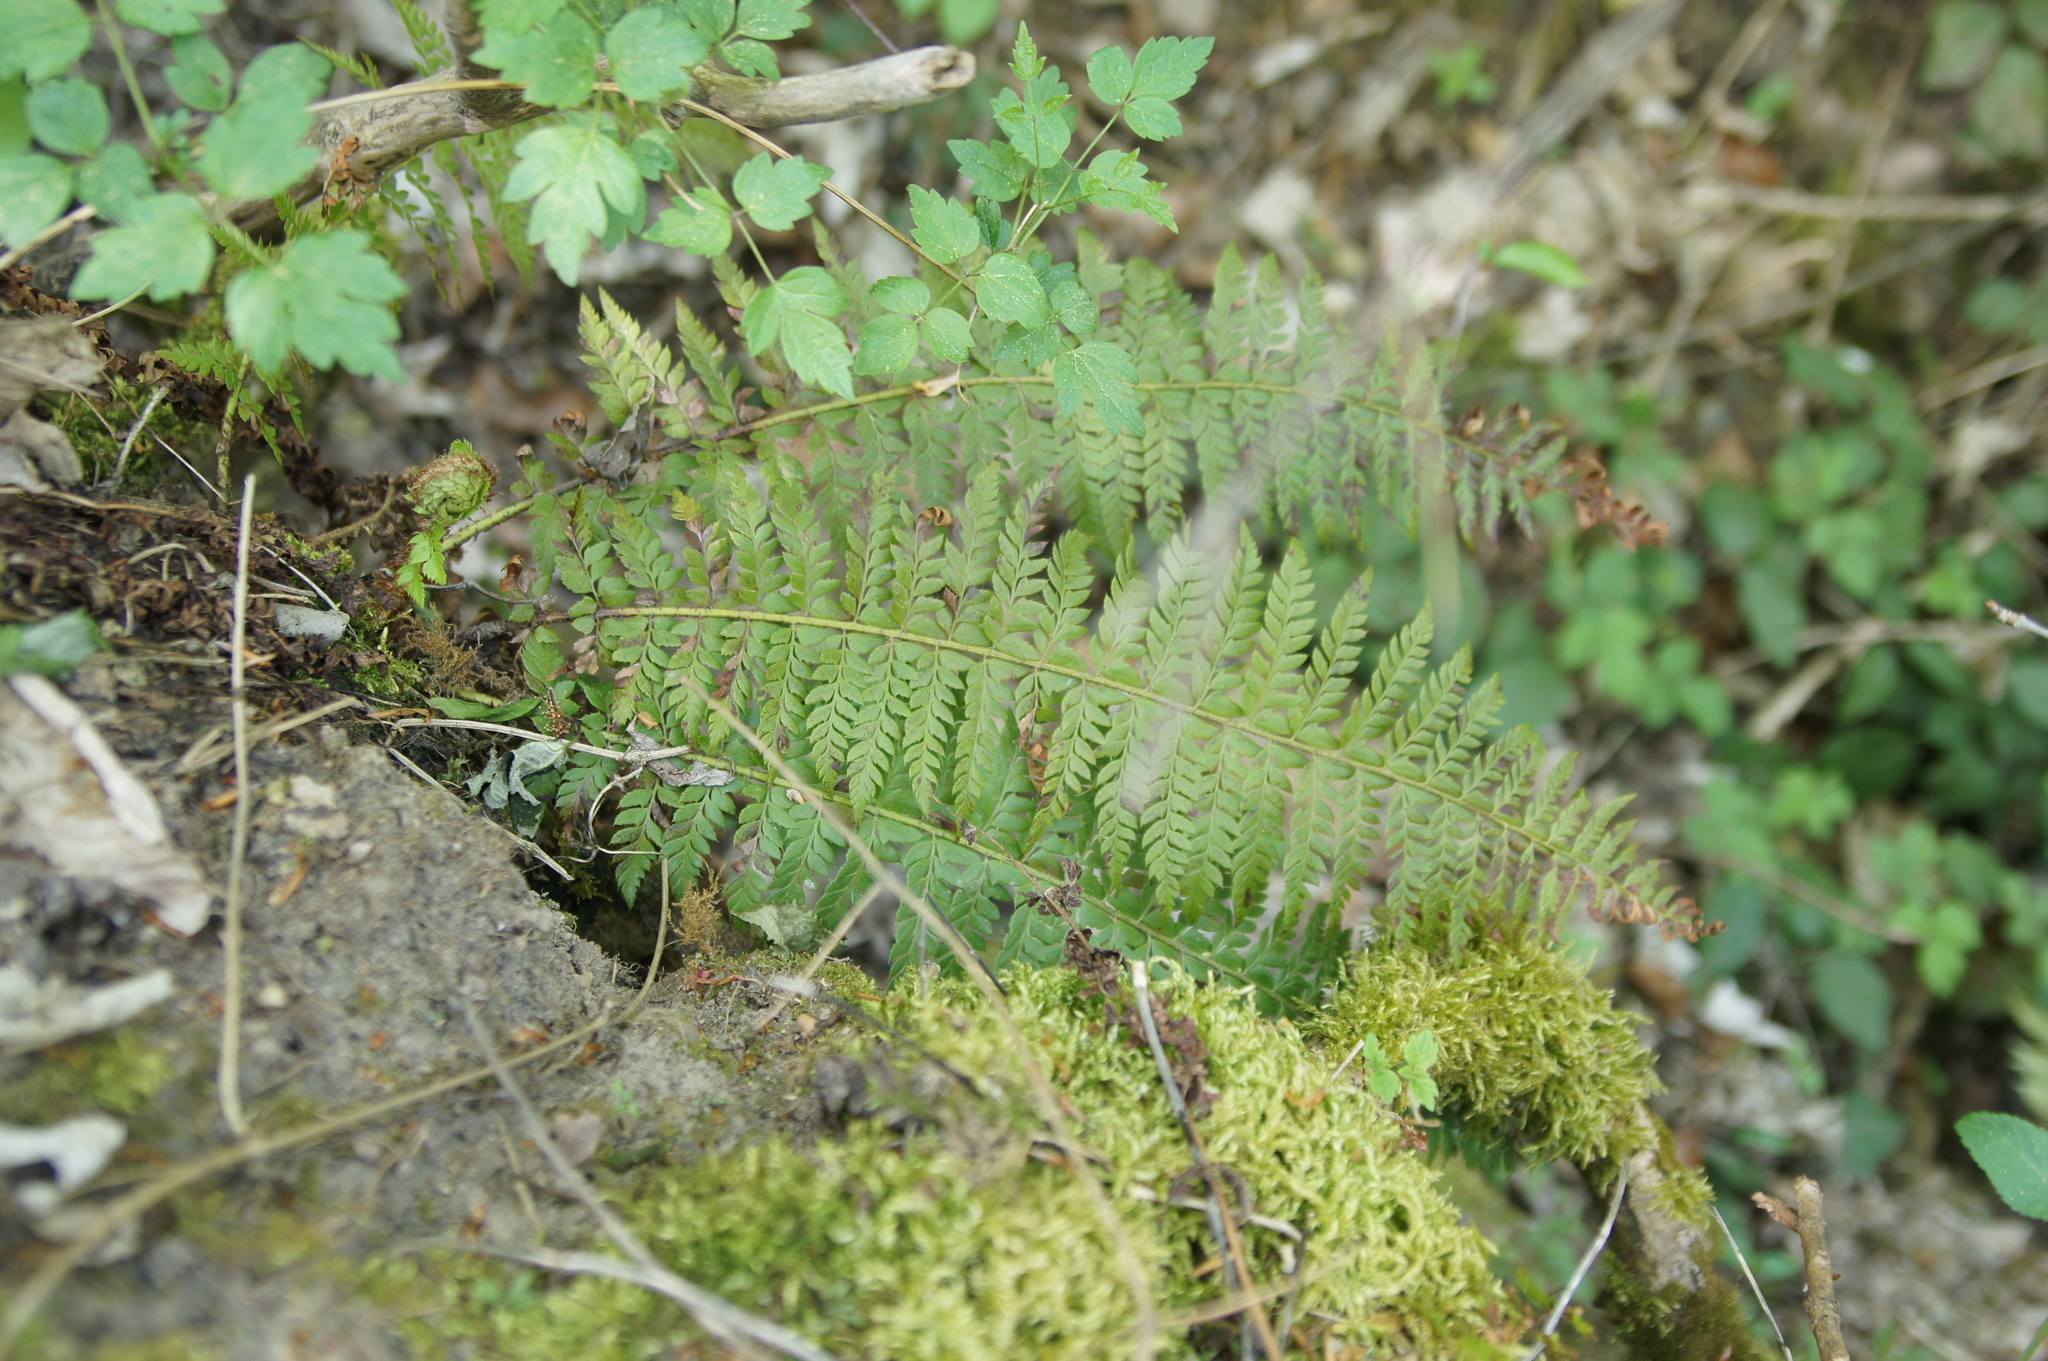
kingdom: Plantae
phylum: Tracheophyta
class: Polypodiopsida
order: Polypodiales
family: Dryopteridaceae
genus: Polystichum
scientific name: Polystichum aculeatum
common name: Hard shield-fern
